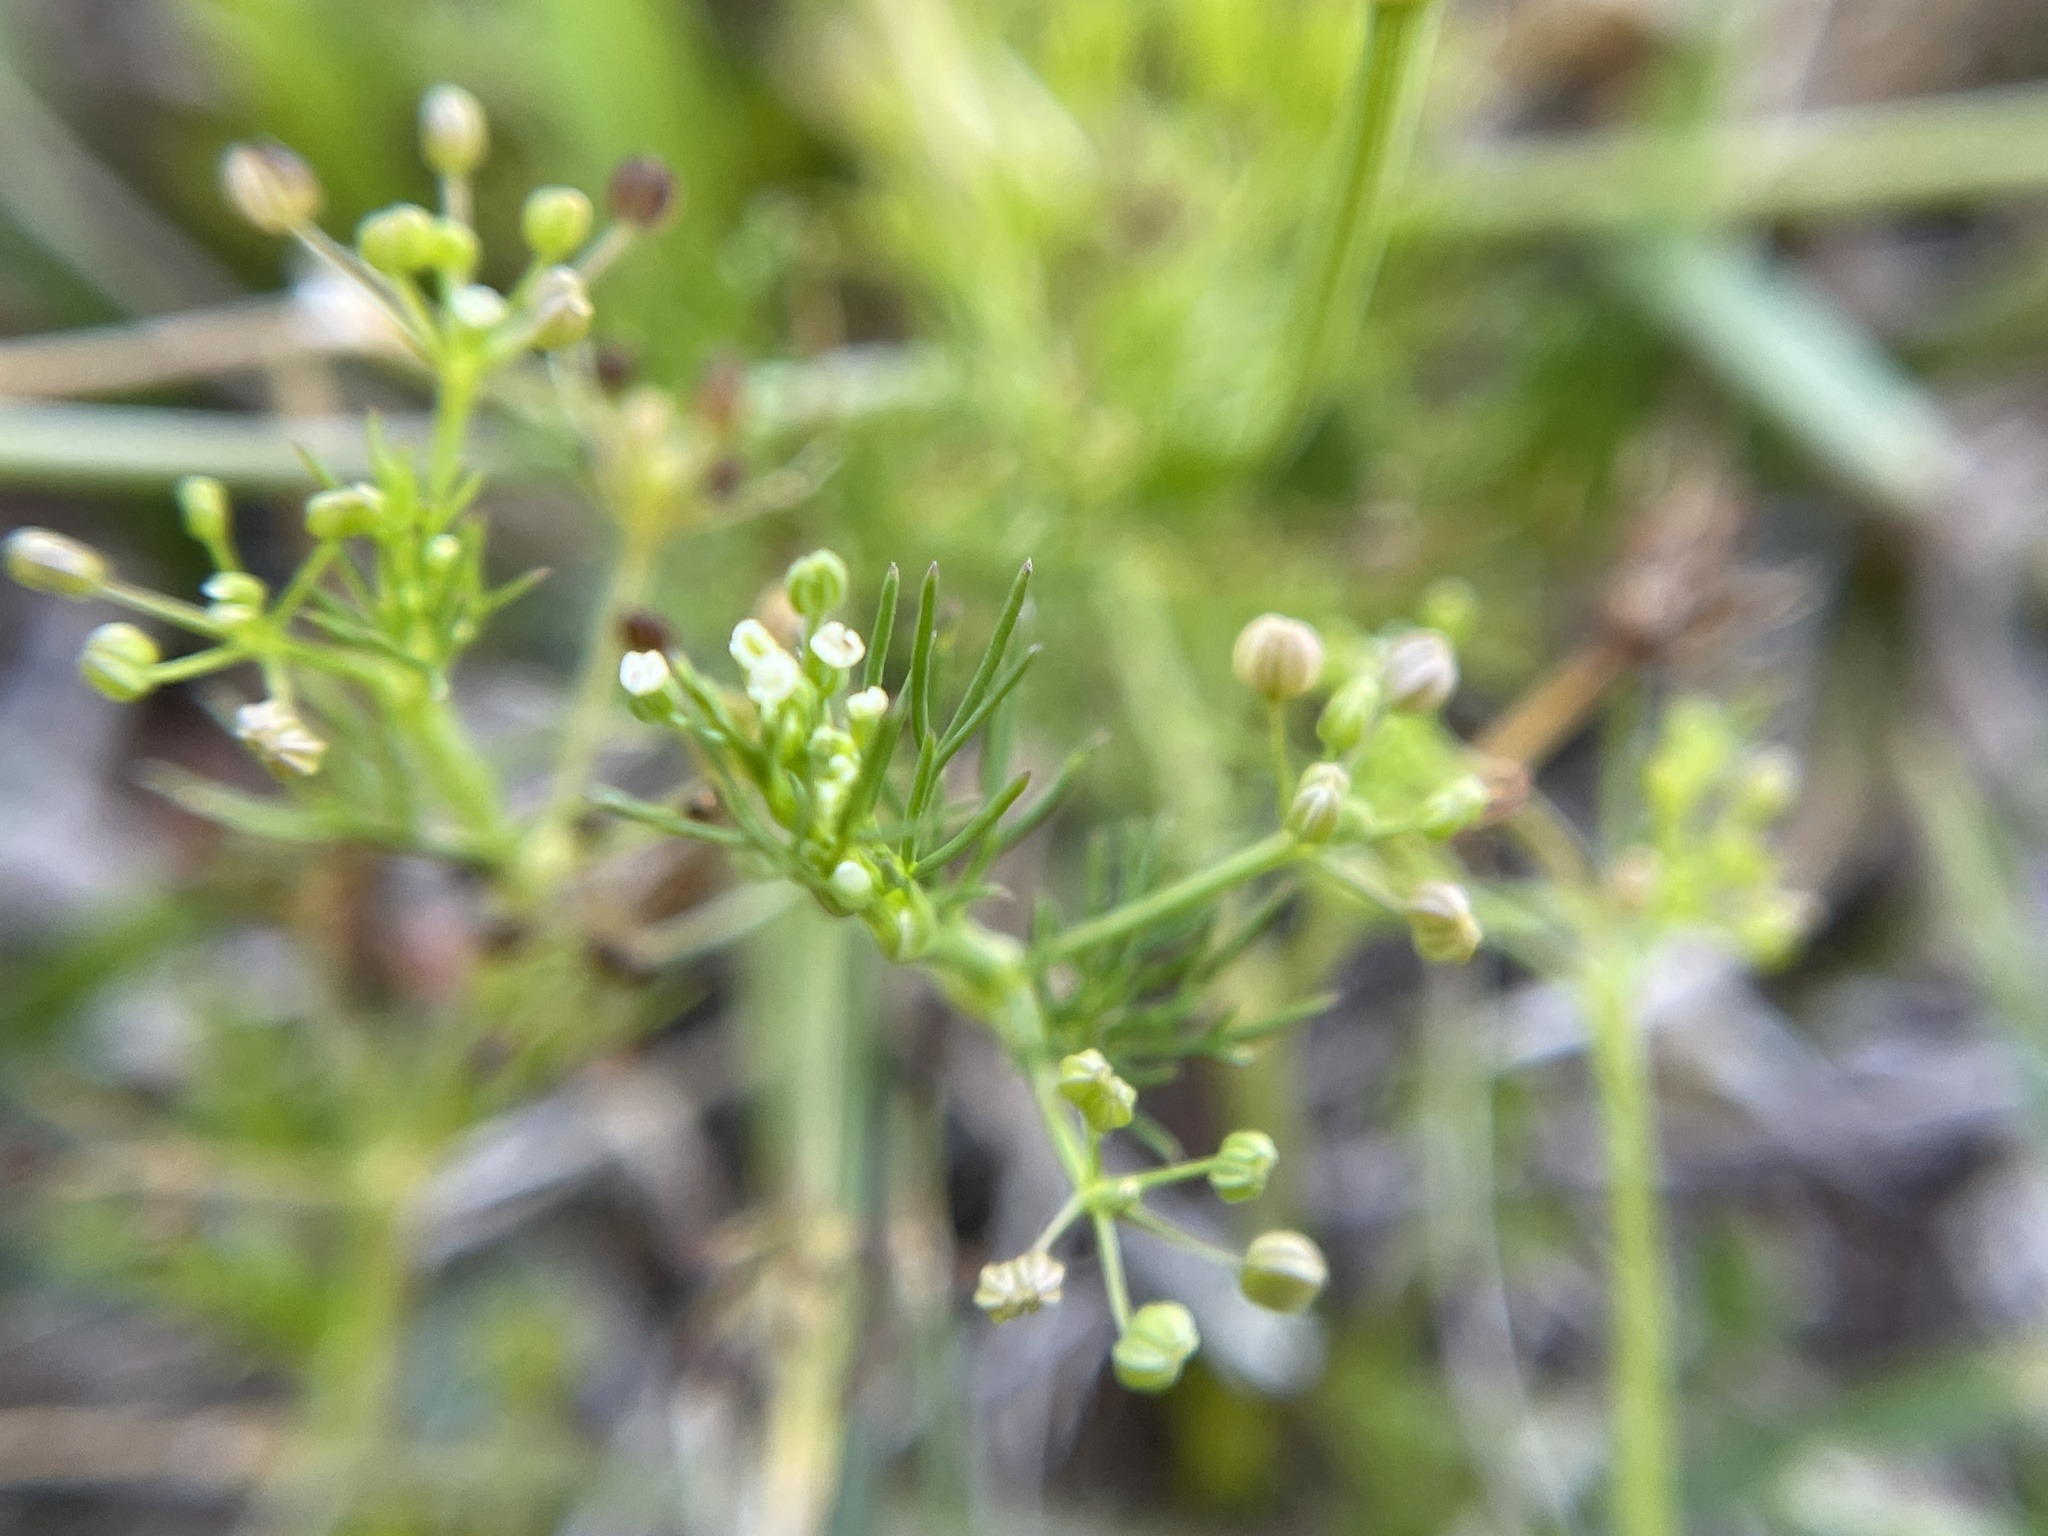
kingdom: Plantae
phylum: Tracheophyta
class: Magnoliopsida
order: Apiales
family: Apiaceae
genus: Cyclospermum
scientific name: Cyclospermum leptophyllum
